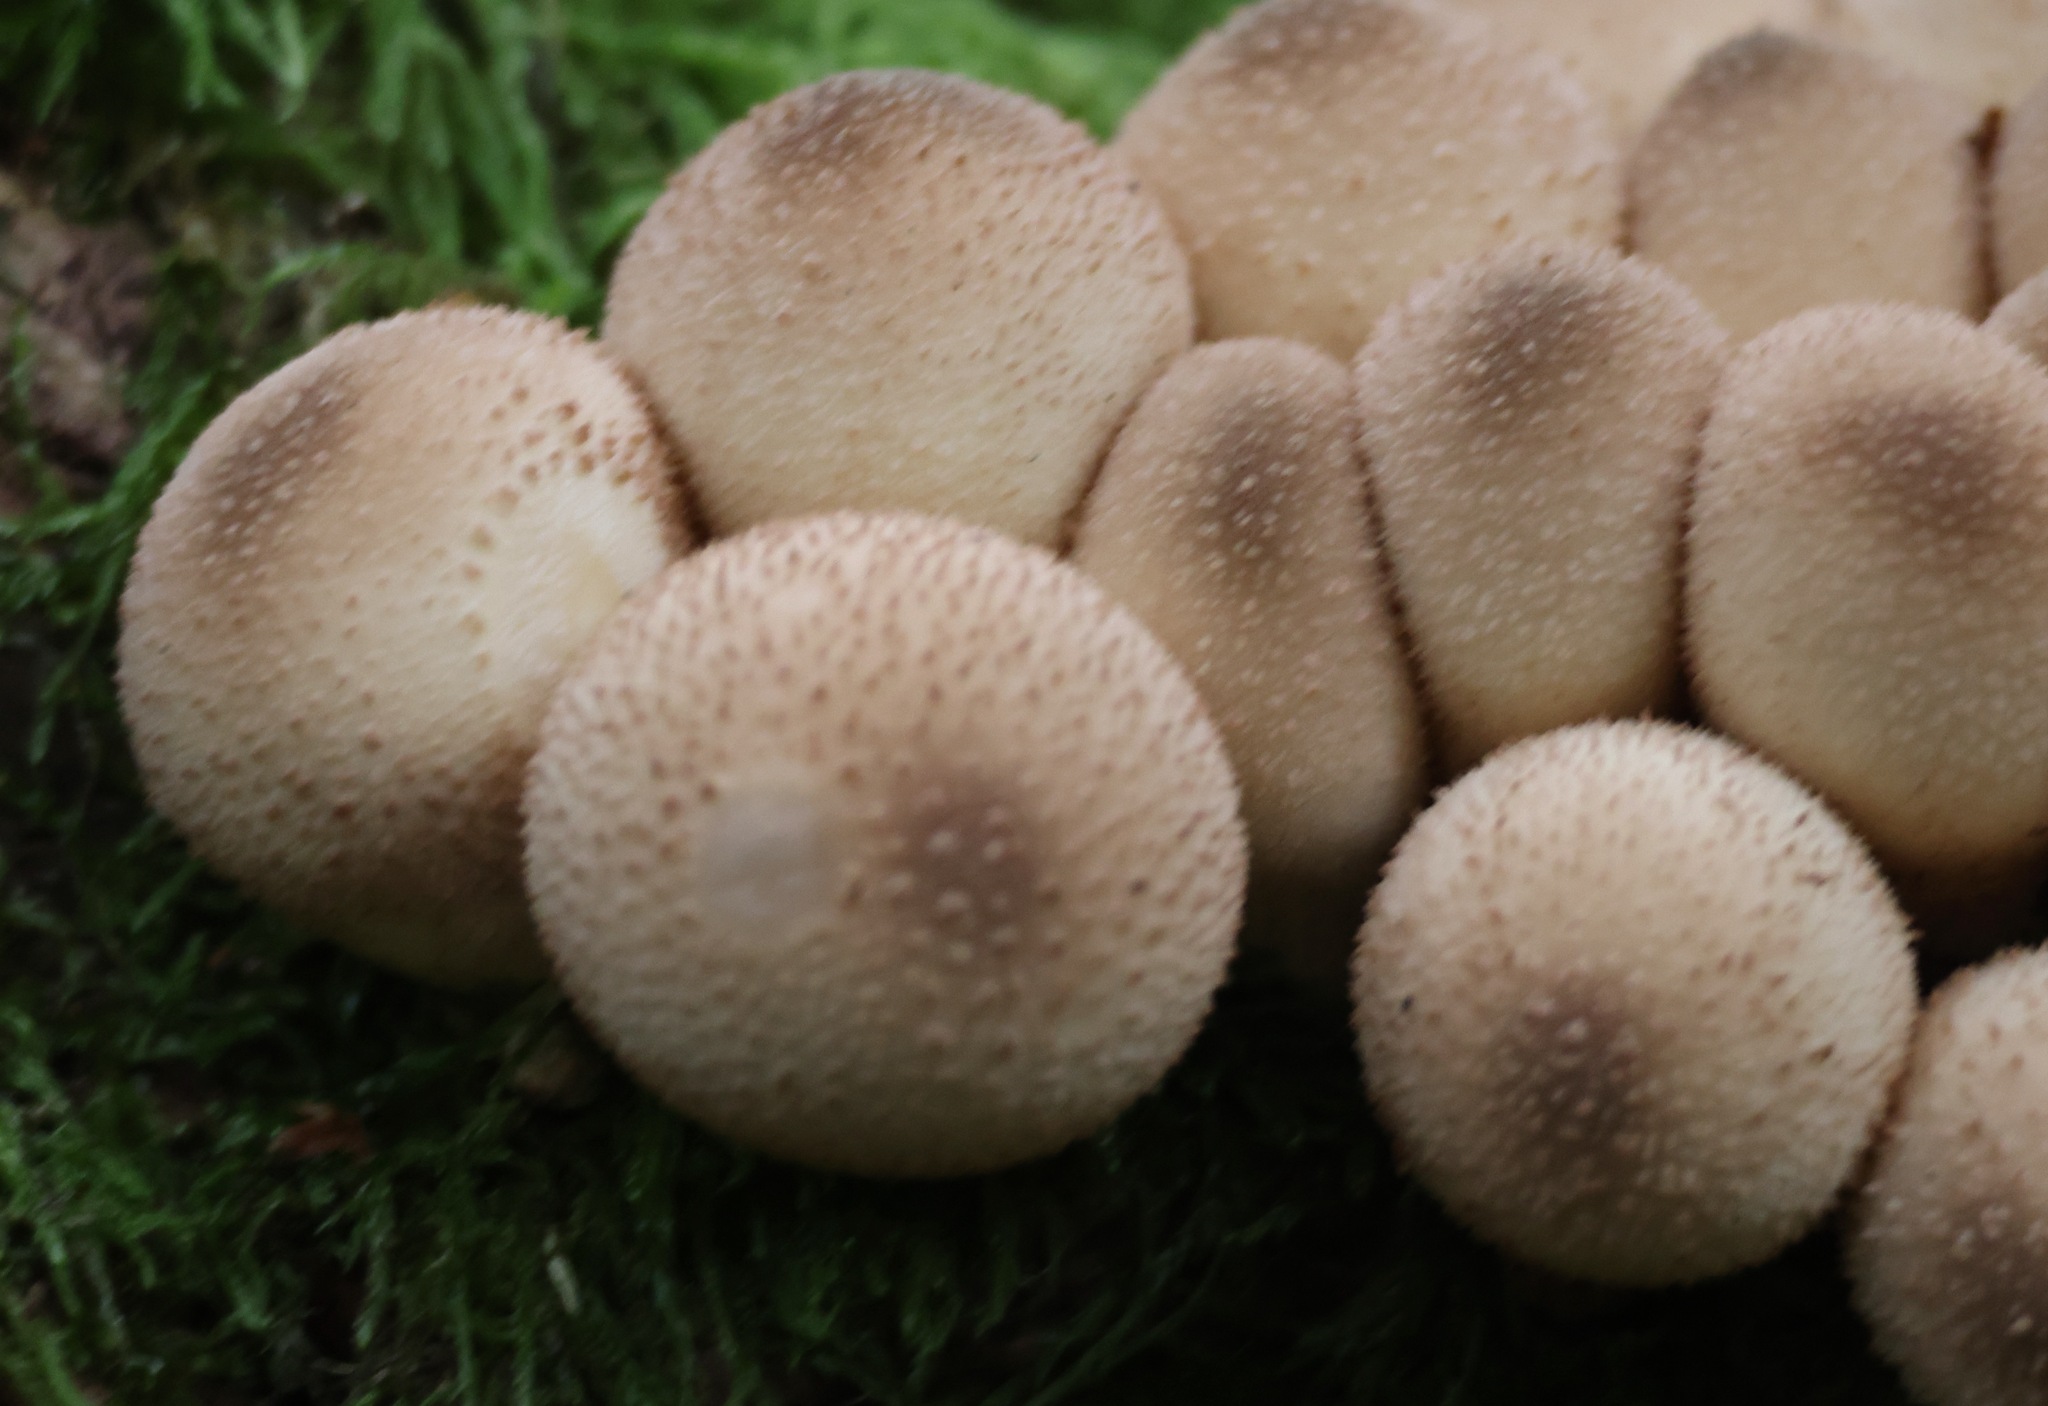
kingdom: Fungi
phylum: Basidiomycota
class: Agaricomycetes
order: Agaricales
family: Lycoperdaceae
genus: Apioperdon
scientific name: Apioperdon pyriforme
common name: Pear-shaped puffball
